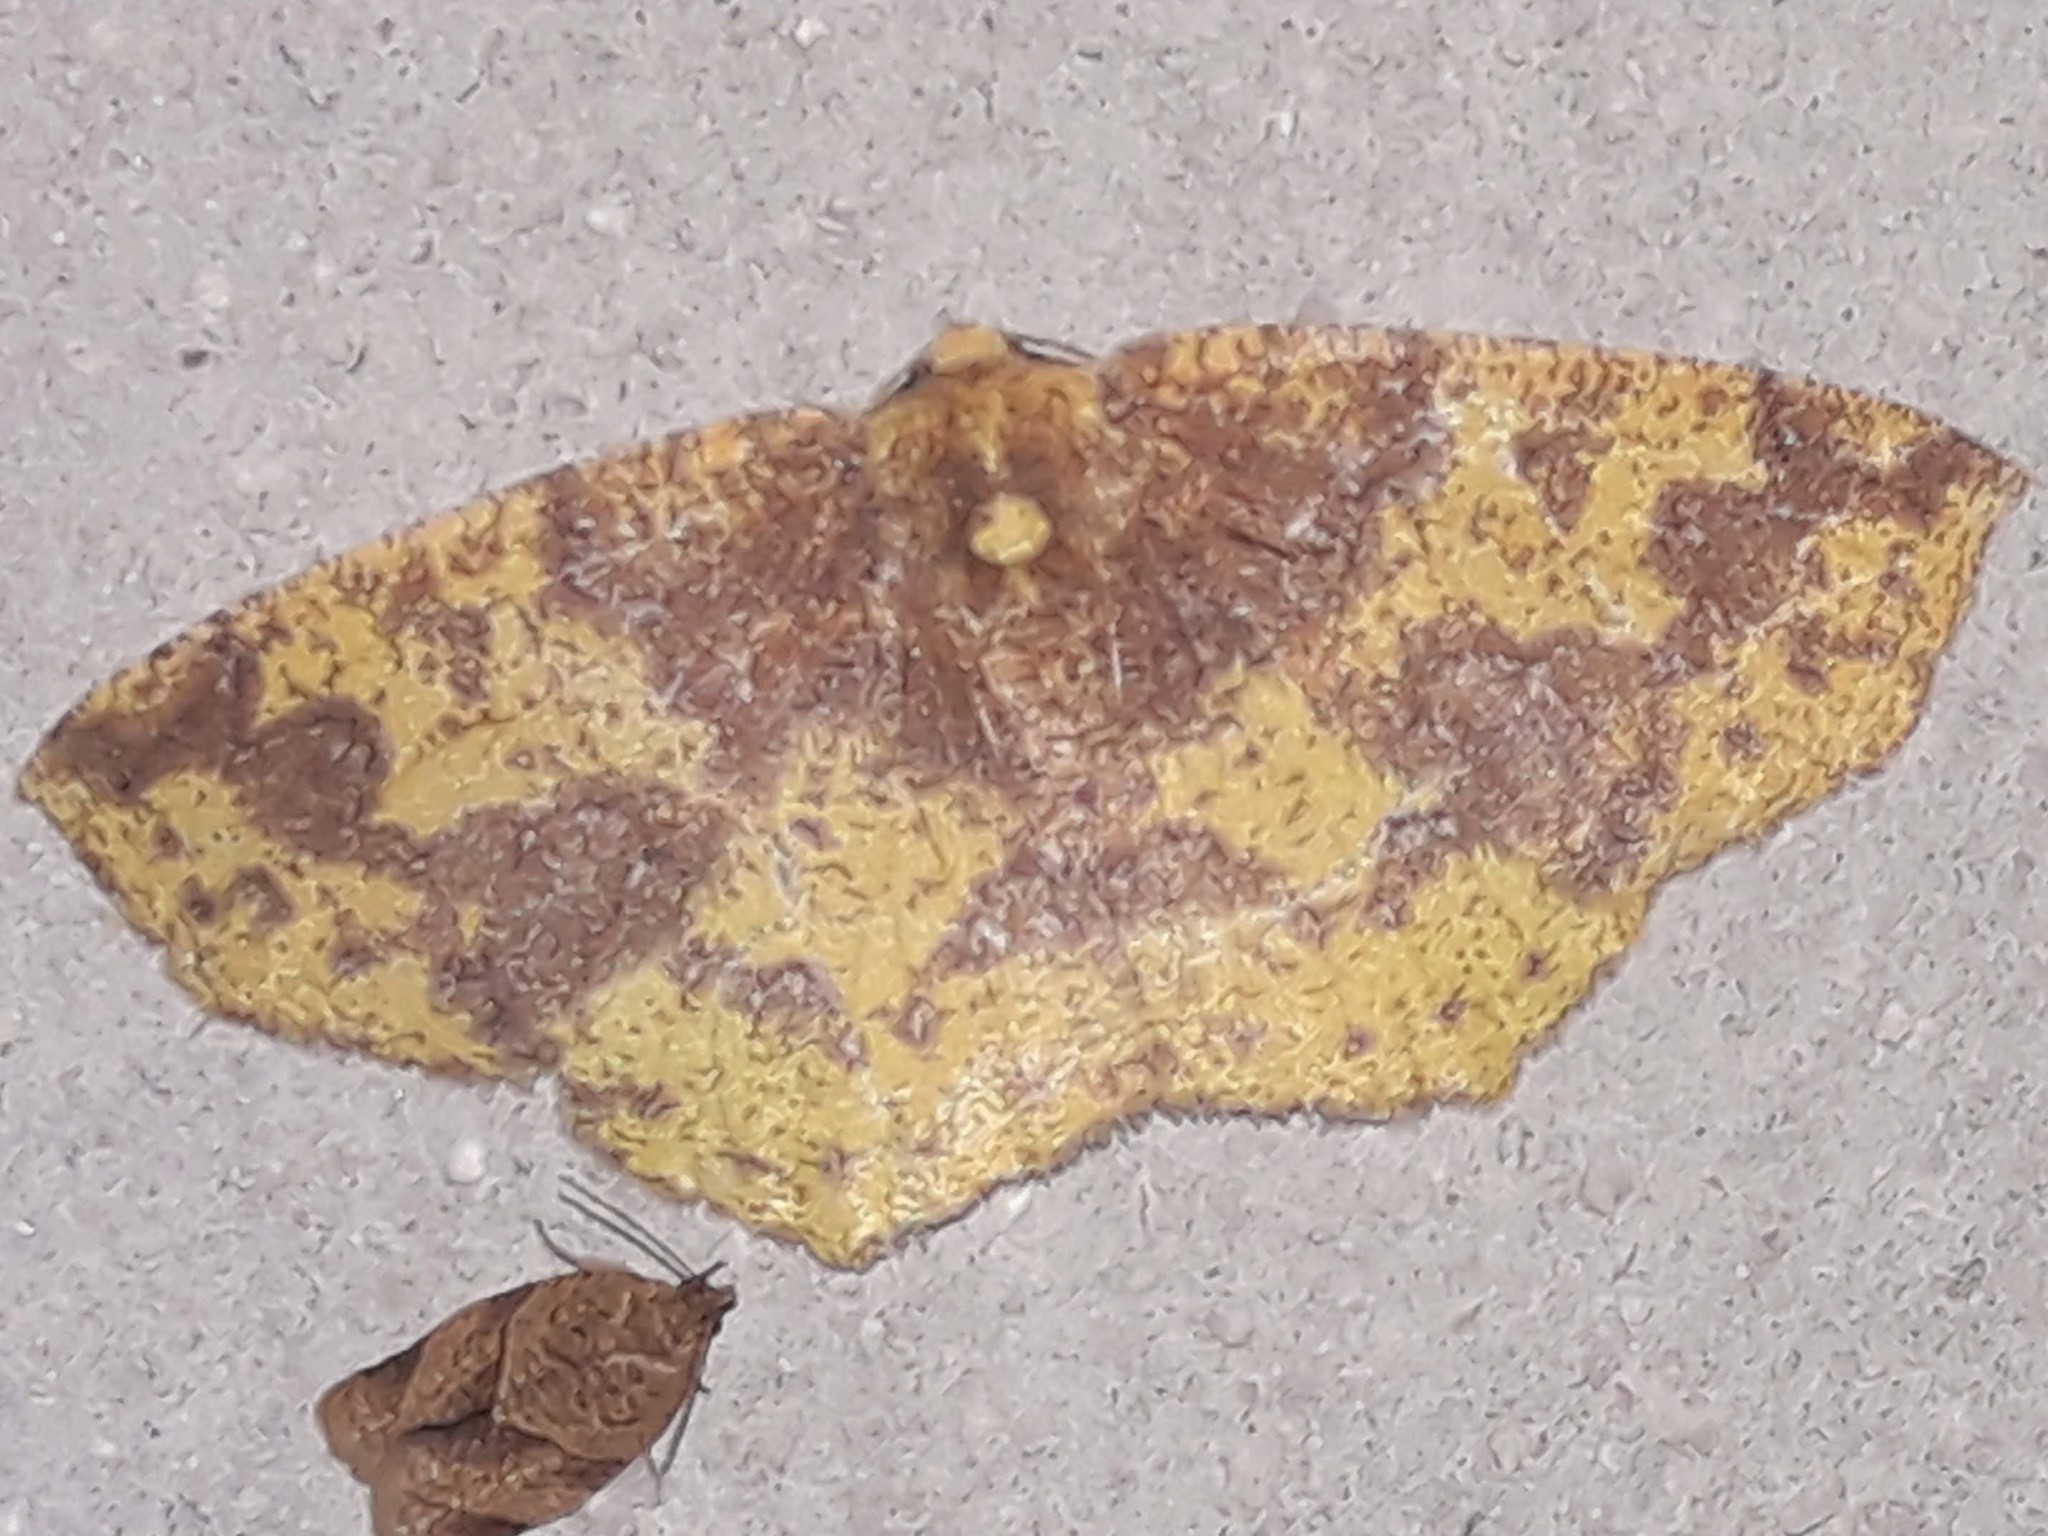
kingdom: Animalia
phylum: Arthropoda
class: Insecta
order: Lepidoptera
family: Geometridae
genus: Periclina
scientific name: Periclina merana
